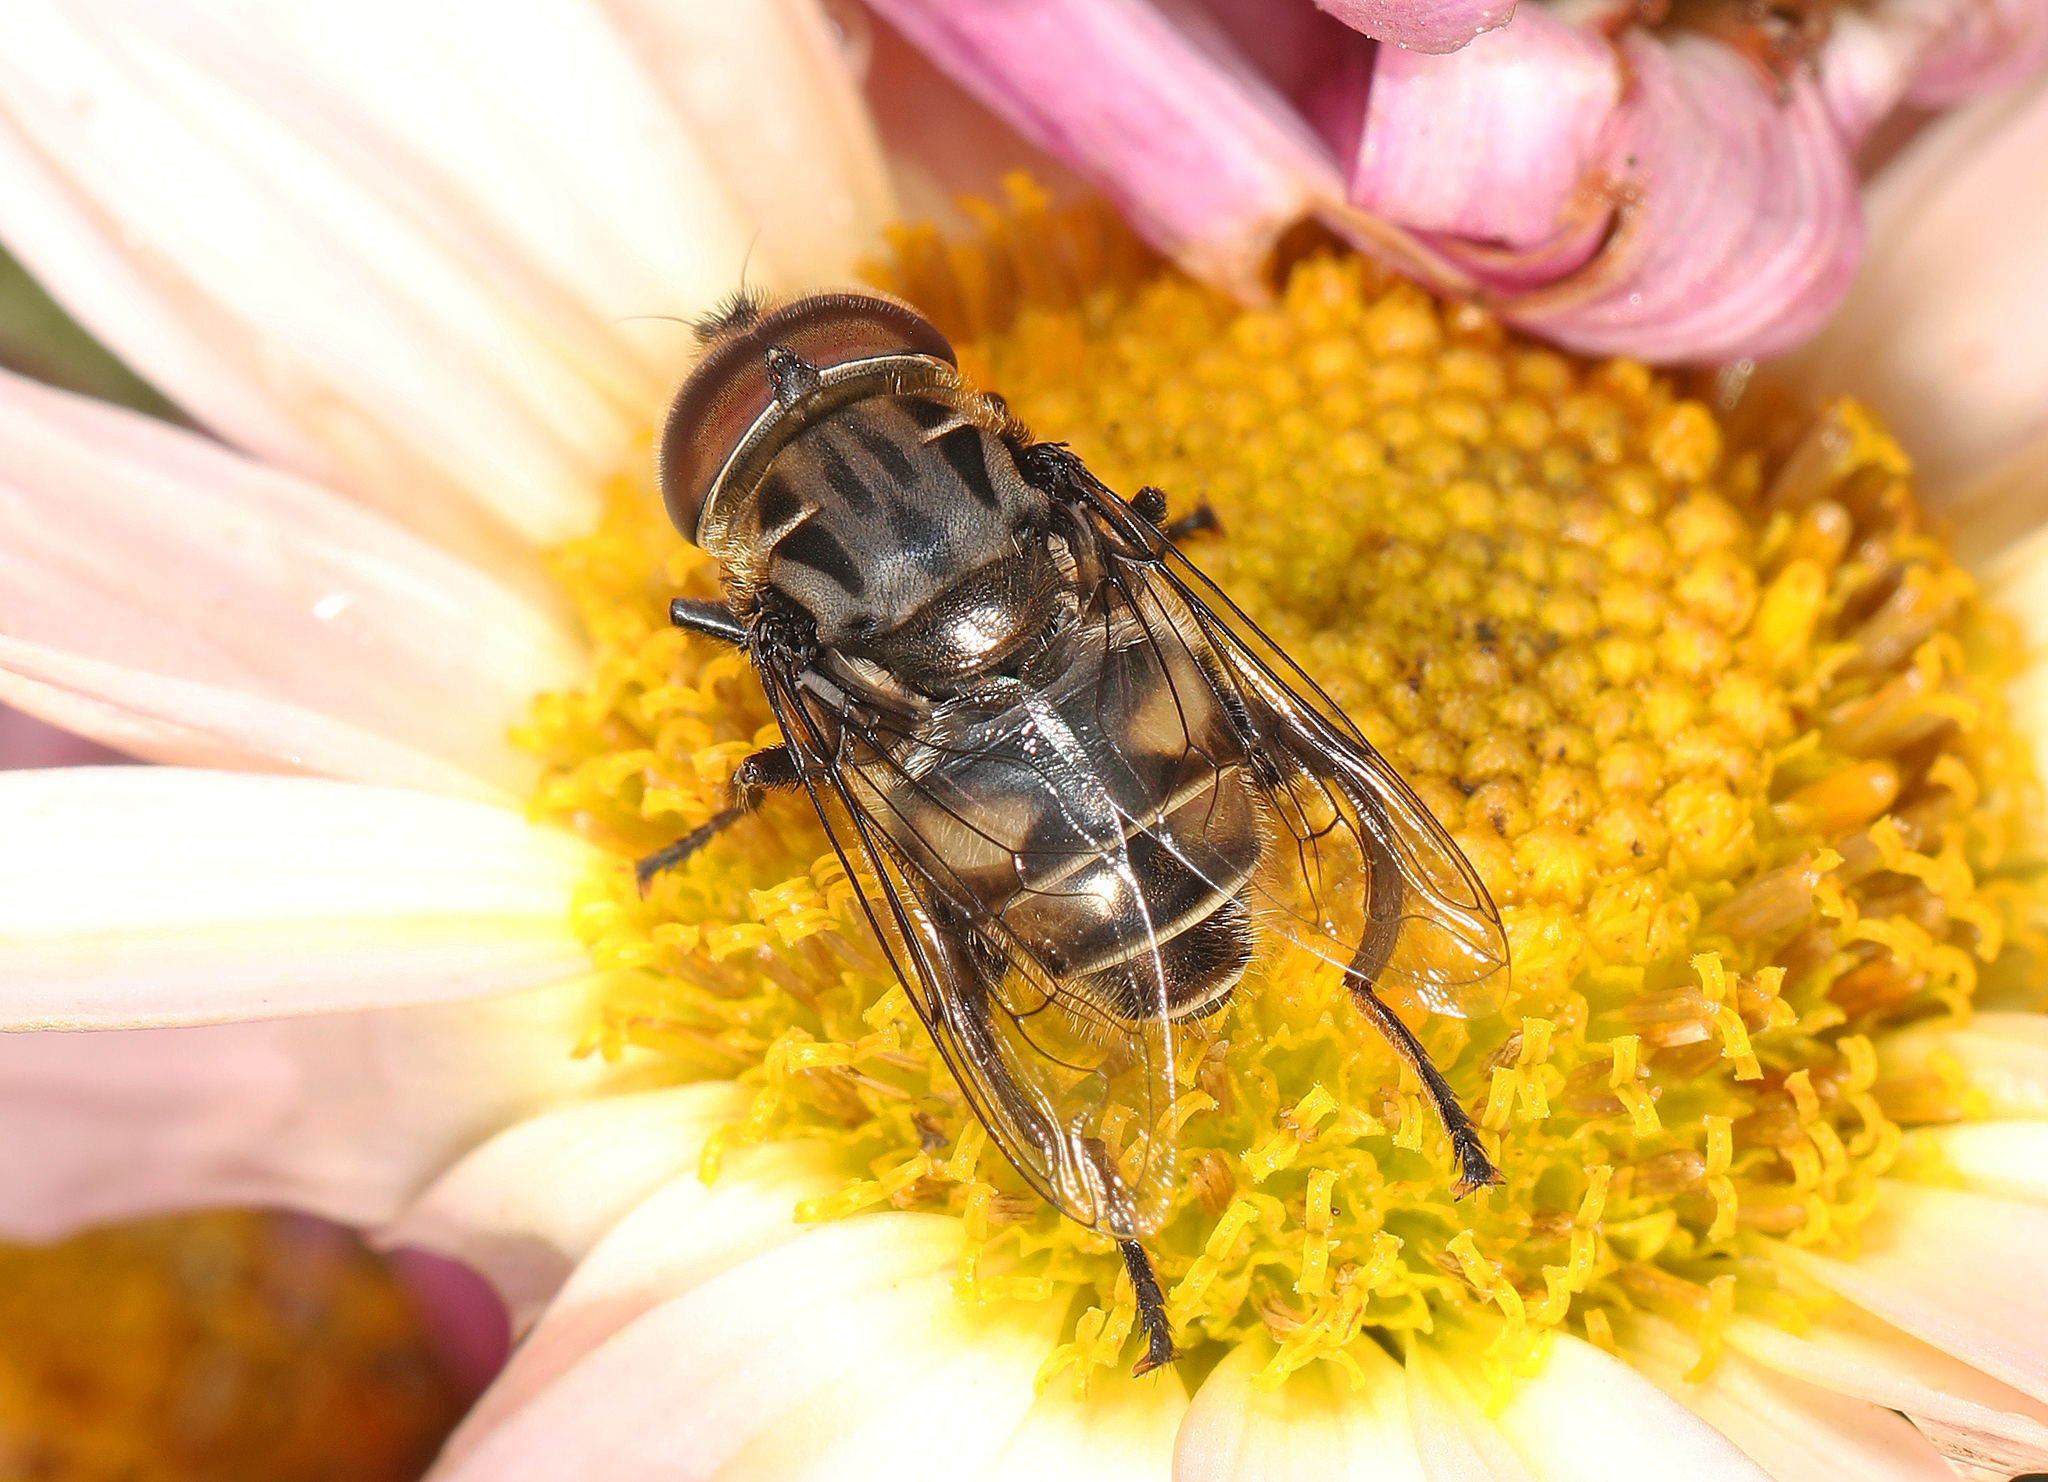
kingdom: Animalia
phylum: Arthropoda
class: Insecta
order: Diptera
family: Syrphidae
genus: Palpada
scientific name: Palpada furcata
